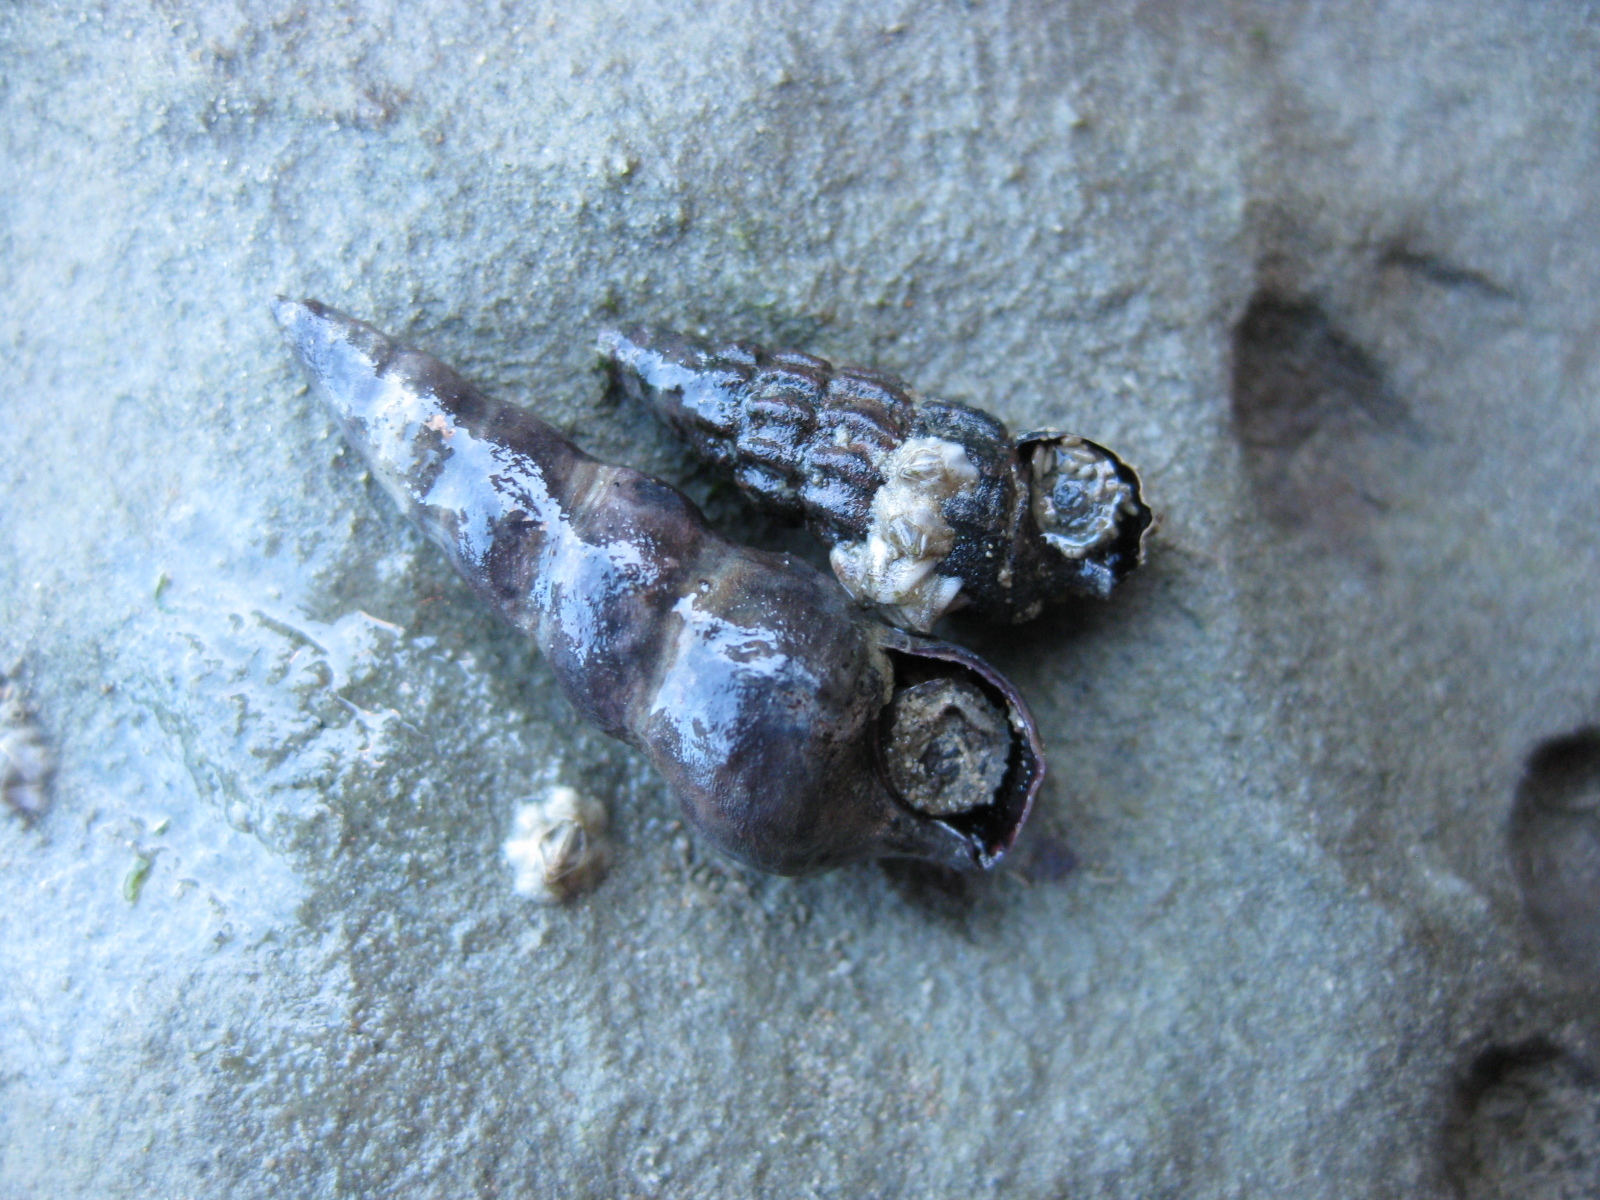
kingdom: Animalia
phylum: Mollusca
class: Gastropoda
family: Batillariidae
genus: Zeacumantus
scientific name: Zeacumantus subcarinatus
